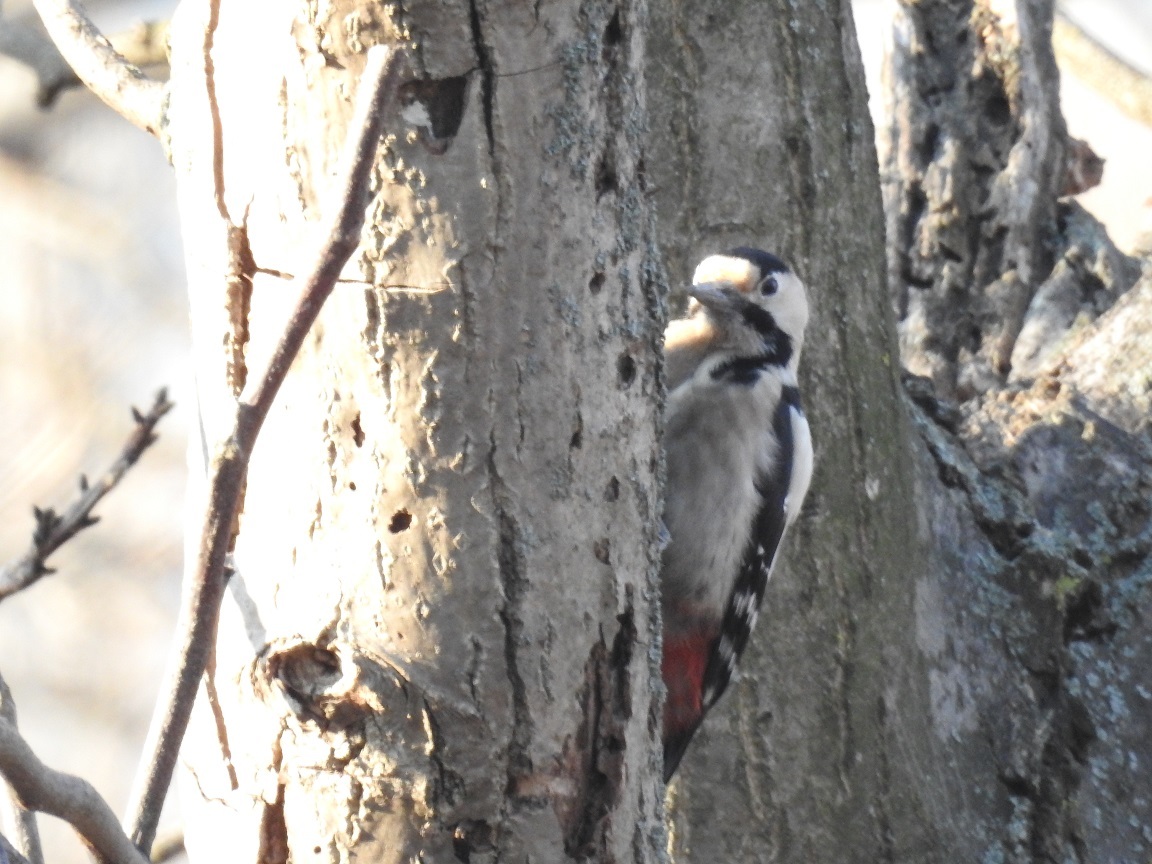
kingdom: Animalia
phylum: Chordata
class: Aves
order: Piciformes
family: Picidae
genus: Dendrocopos
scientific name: Dendrocopos syriacus
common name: Syrian woodpecker
